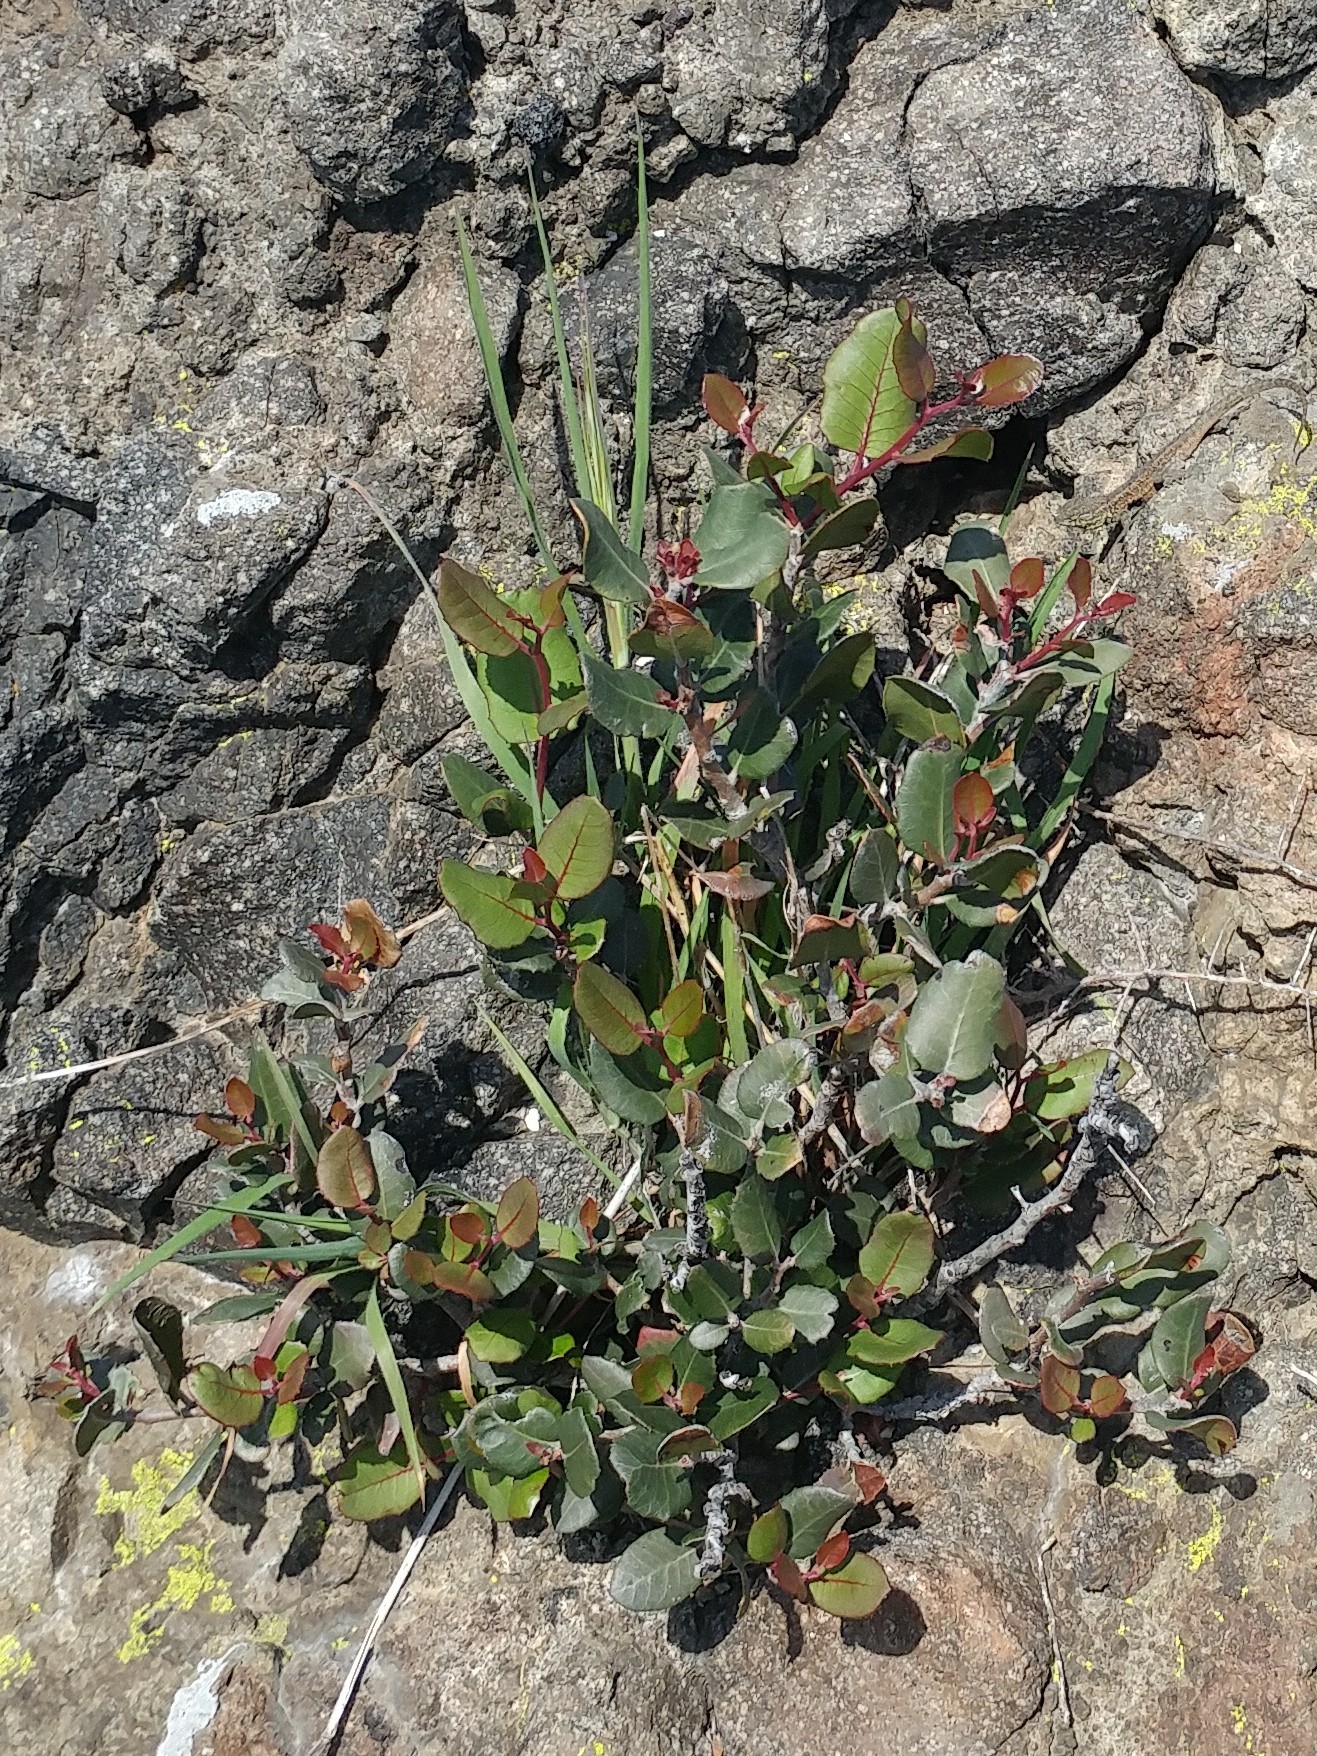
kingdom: Plantae
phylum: Tracheophyta
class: Magnoliopsida
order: Sapindales
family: Anacardiaceae
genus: Rhus
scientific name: Rhus integrifolia
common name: Lemonade sumac
